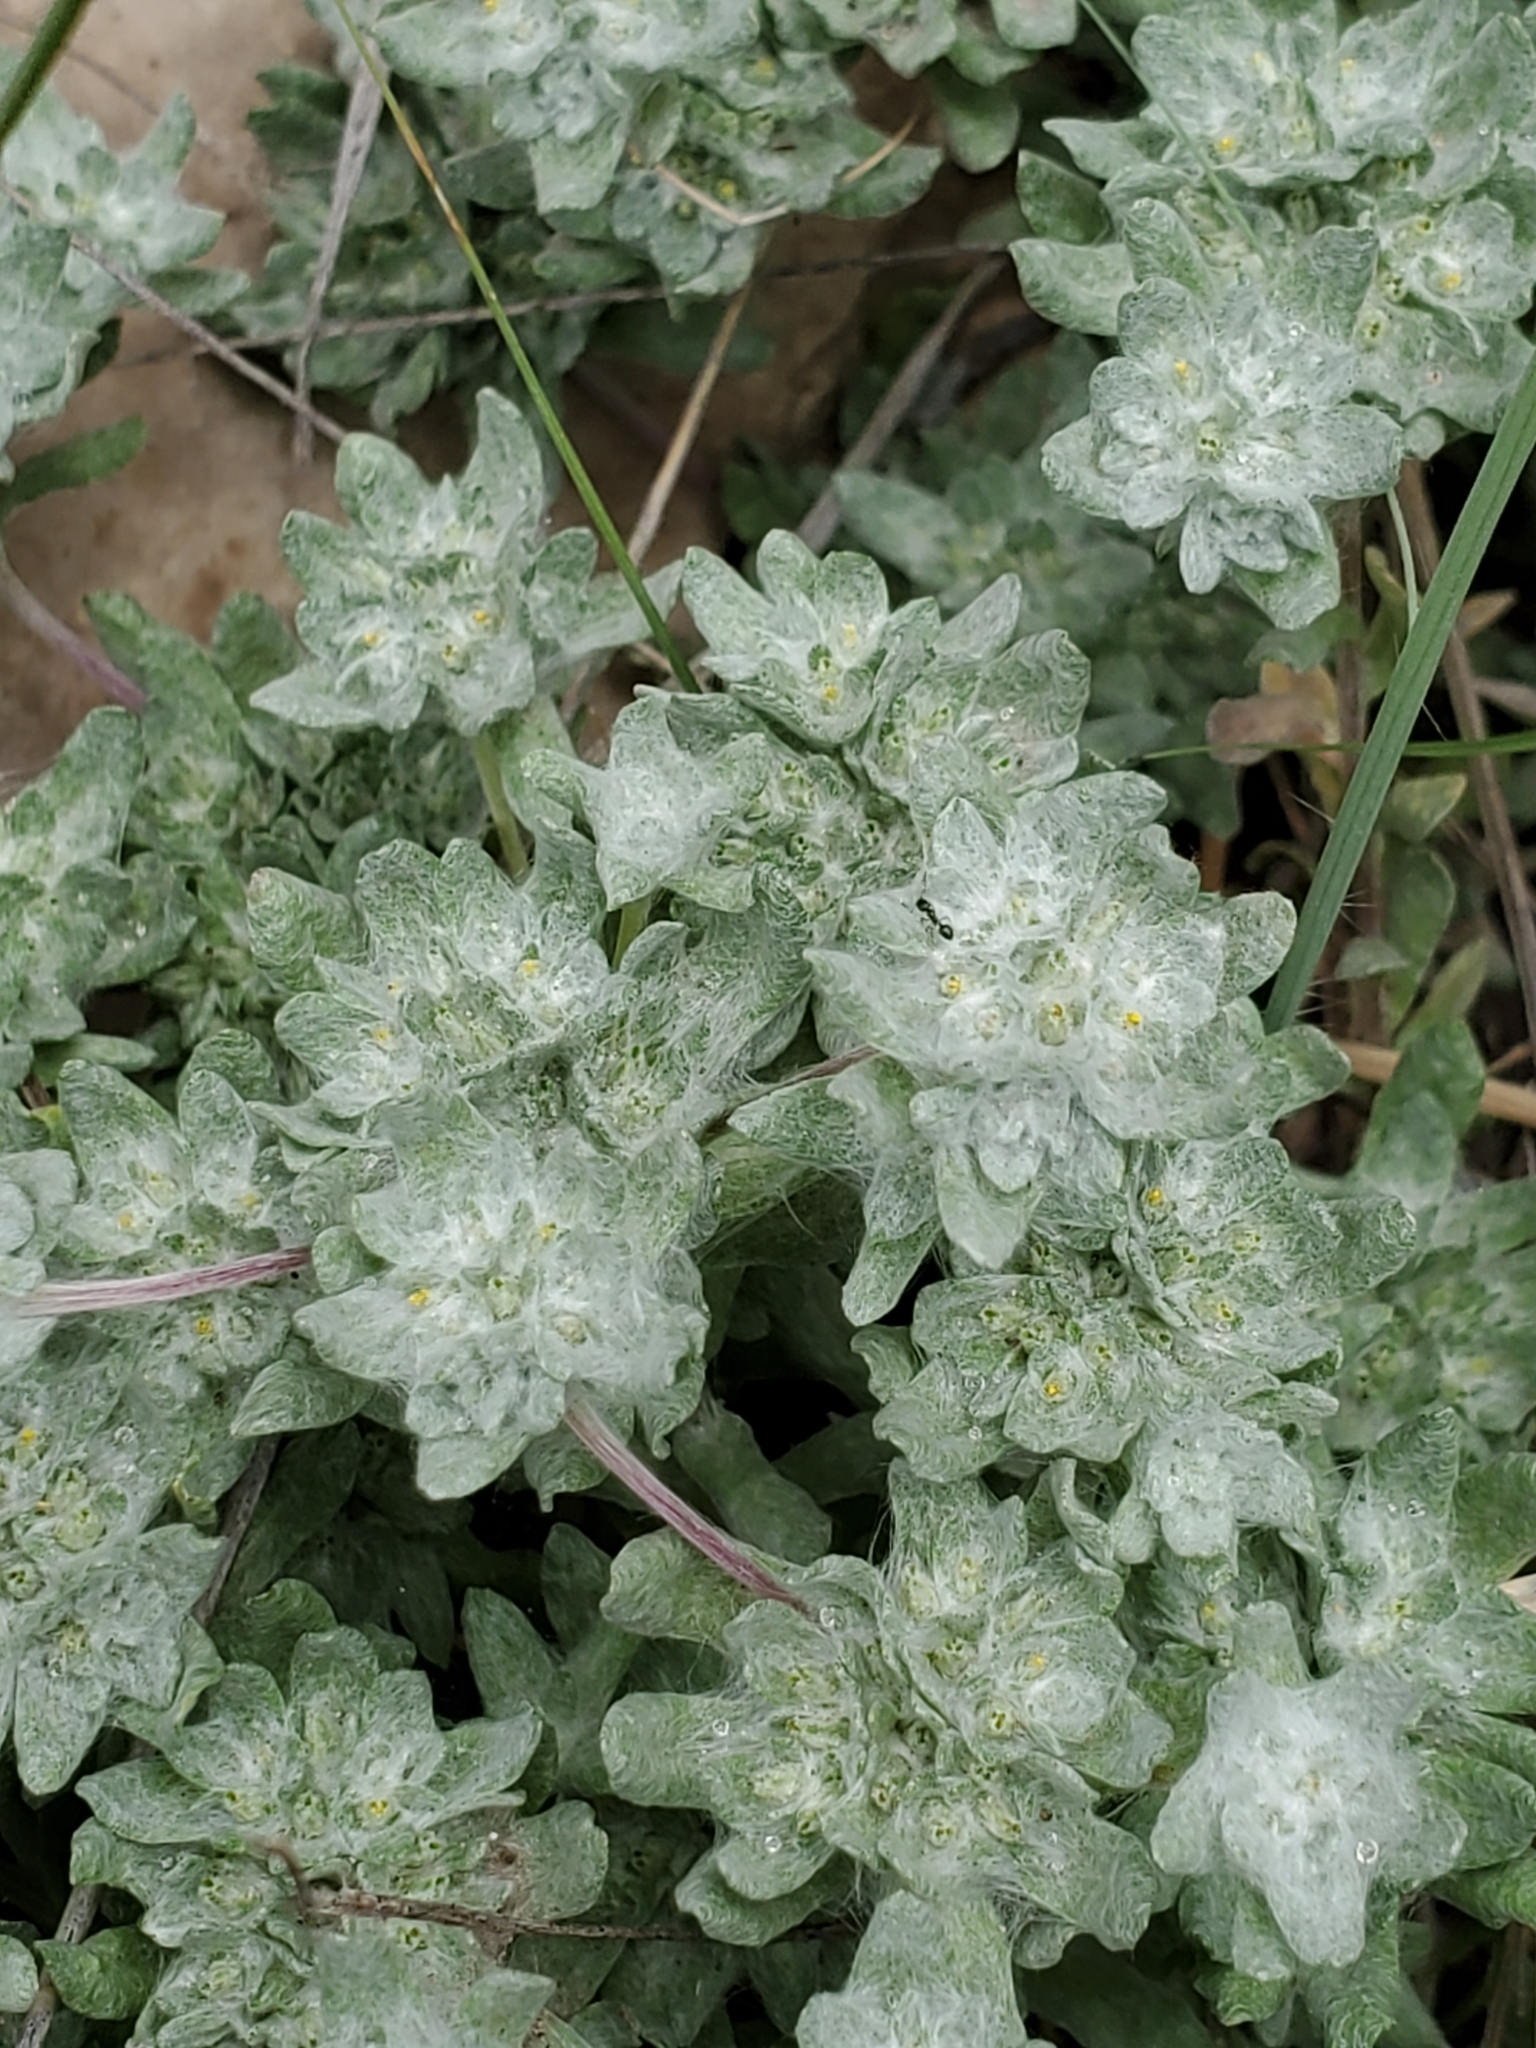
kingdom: Plantae
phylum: Tracheophyta
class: Magnoliopsida
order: Asterales
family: Asteraceae
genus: Diaperia
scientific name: Diaperia prolifera
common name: Big-head rabbit-tobacco
